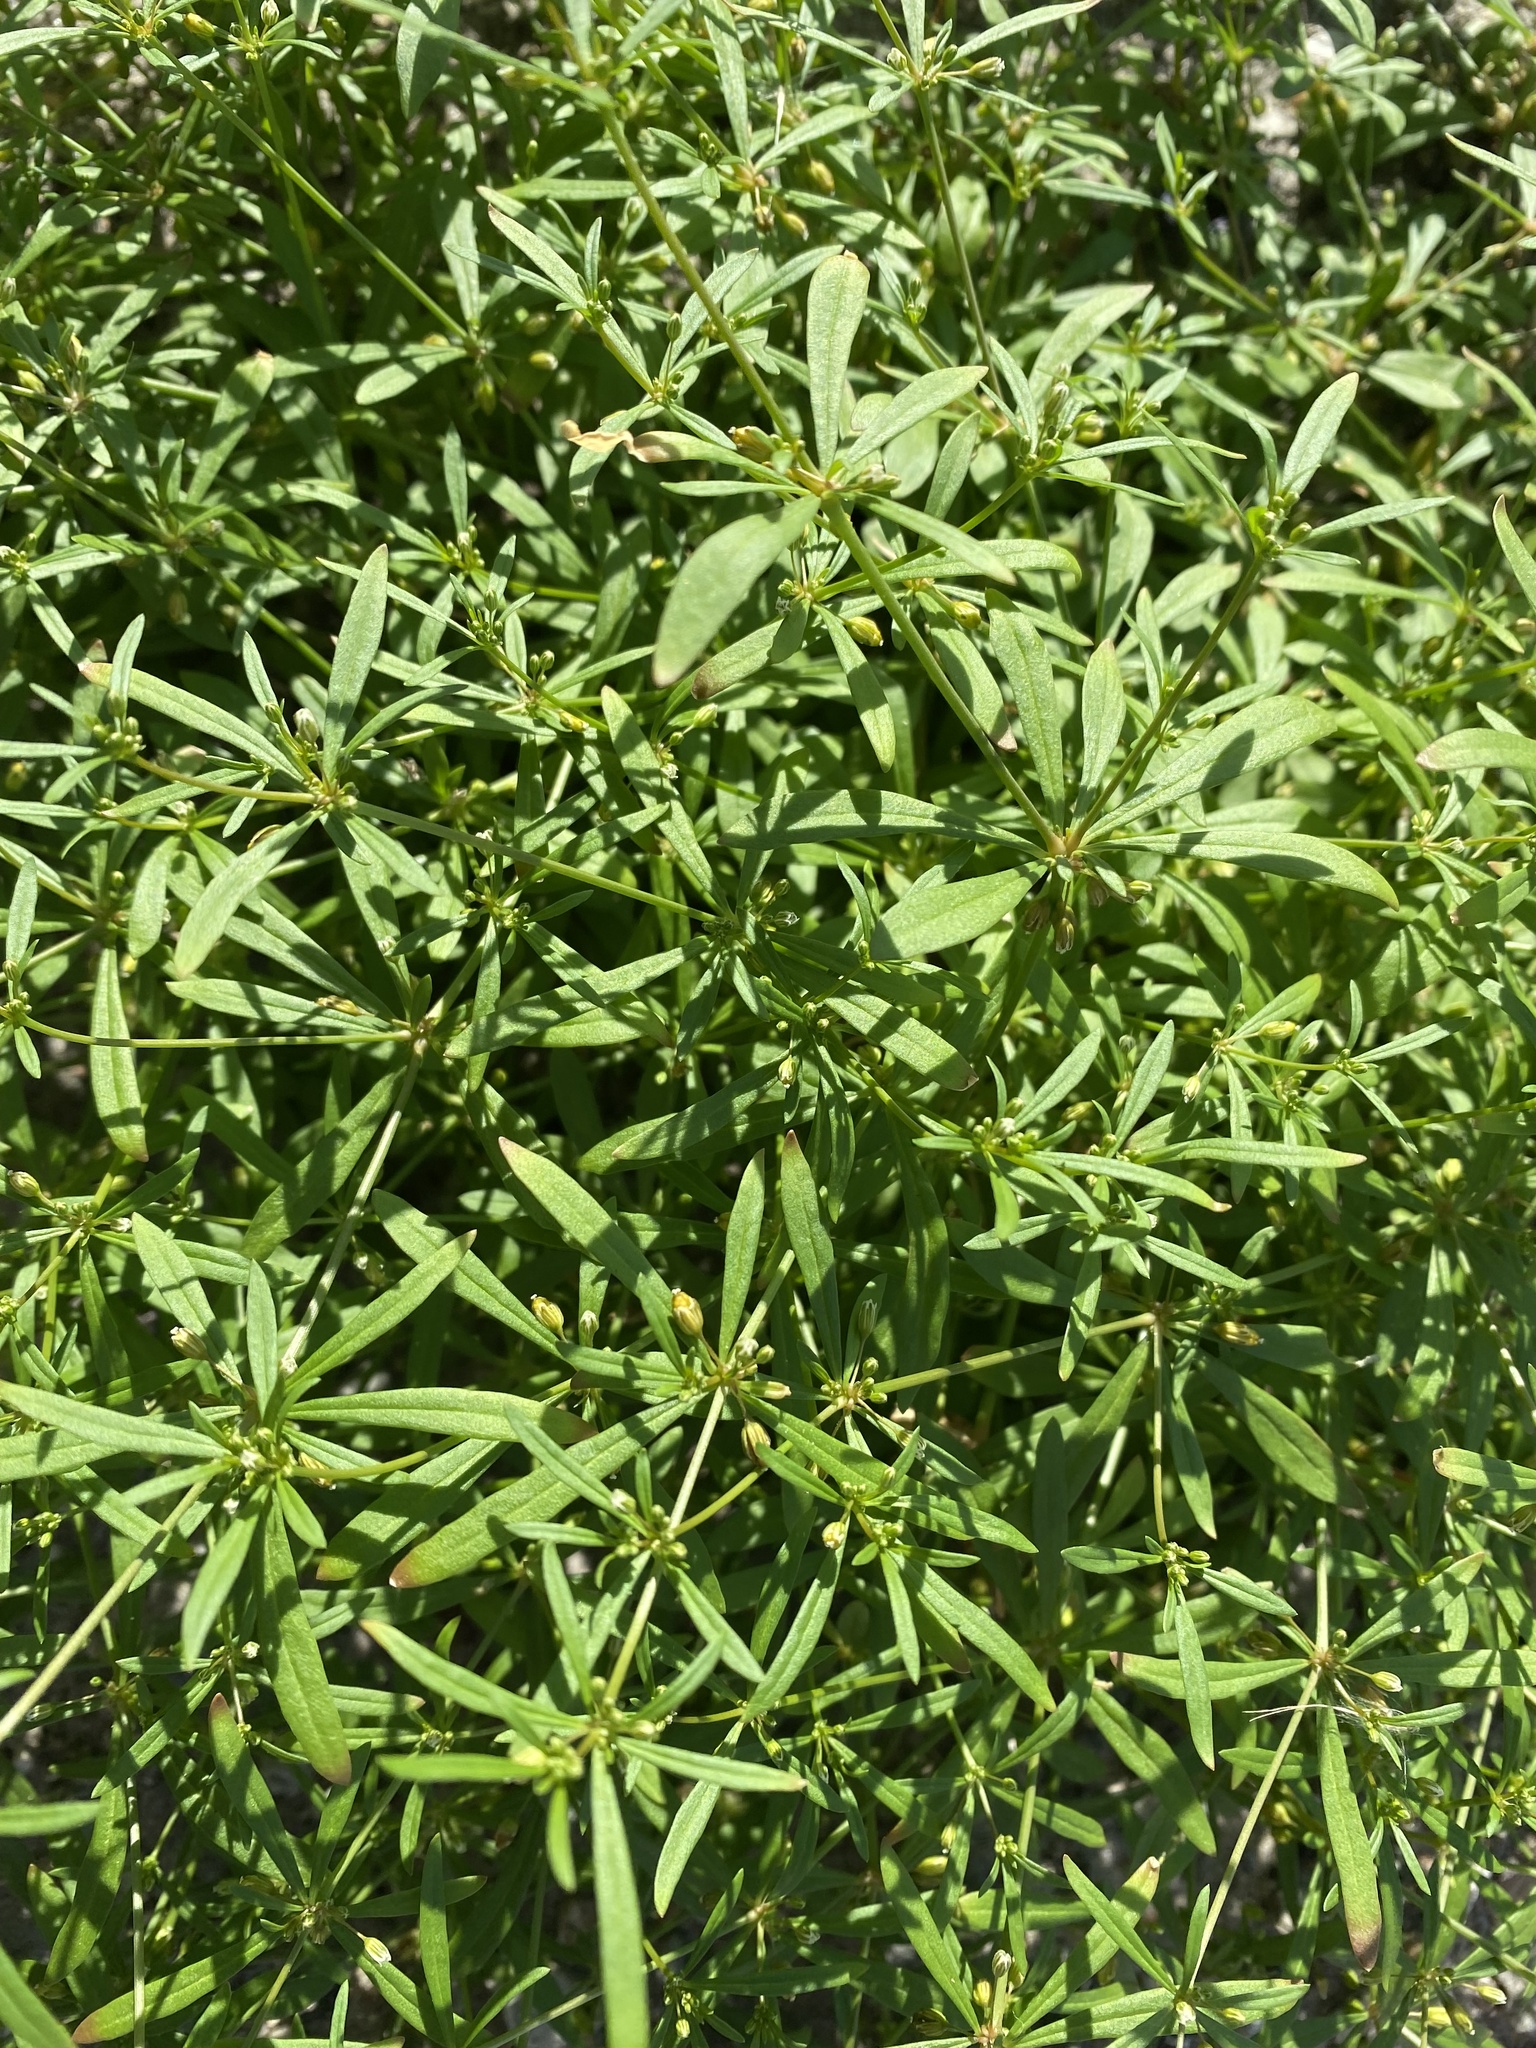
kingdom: Plantae
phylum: Tracheophyta
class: Magnoliopsida
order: Caryophyllales
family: Molluginaceae
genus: Mollugo
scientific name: Mollugo verticillata
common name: Green carpetweed
